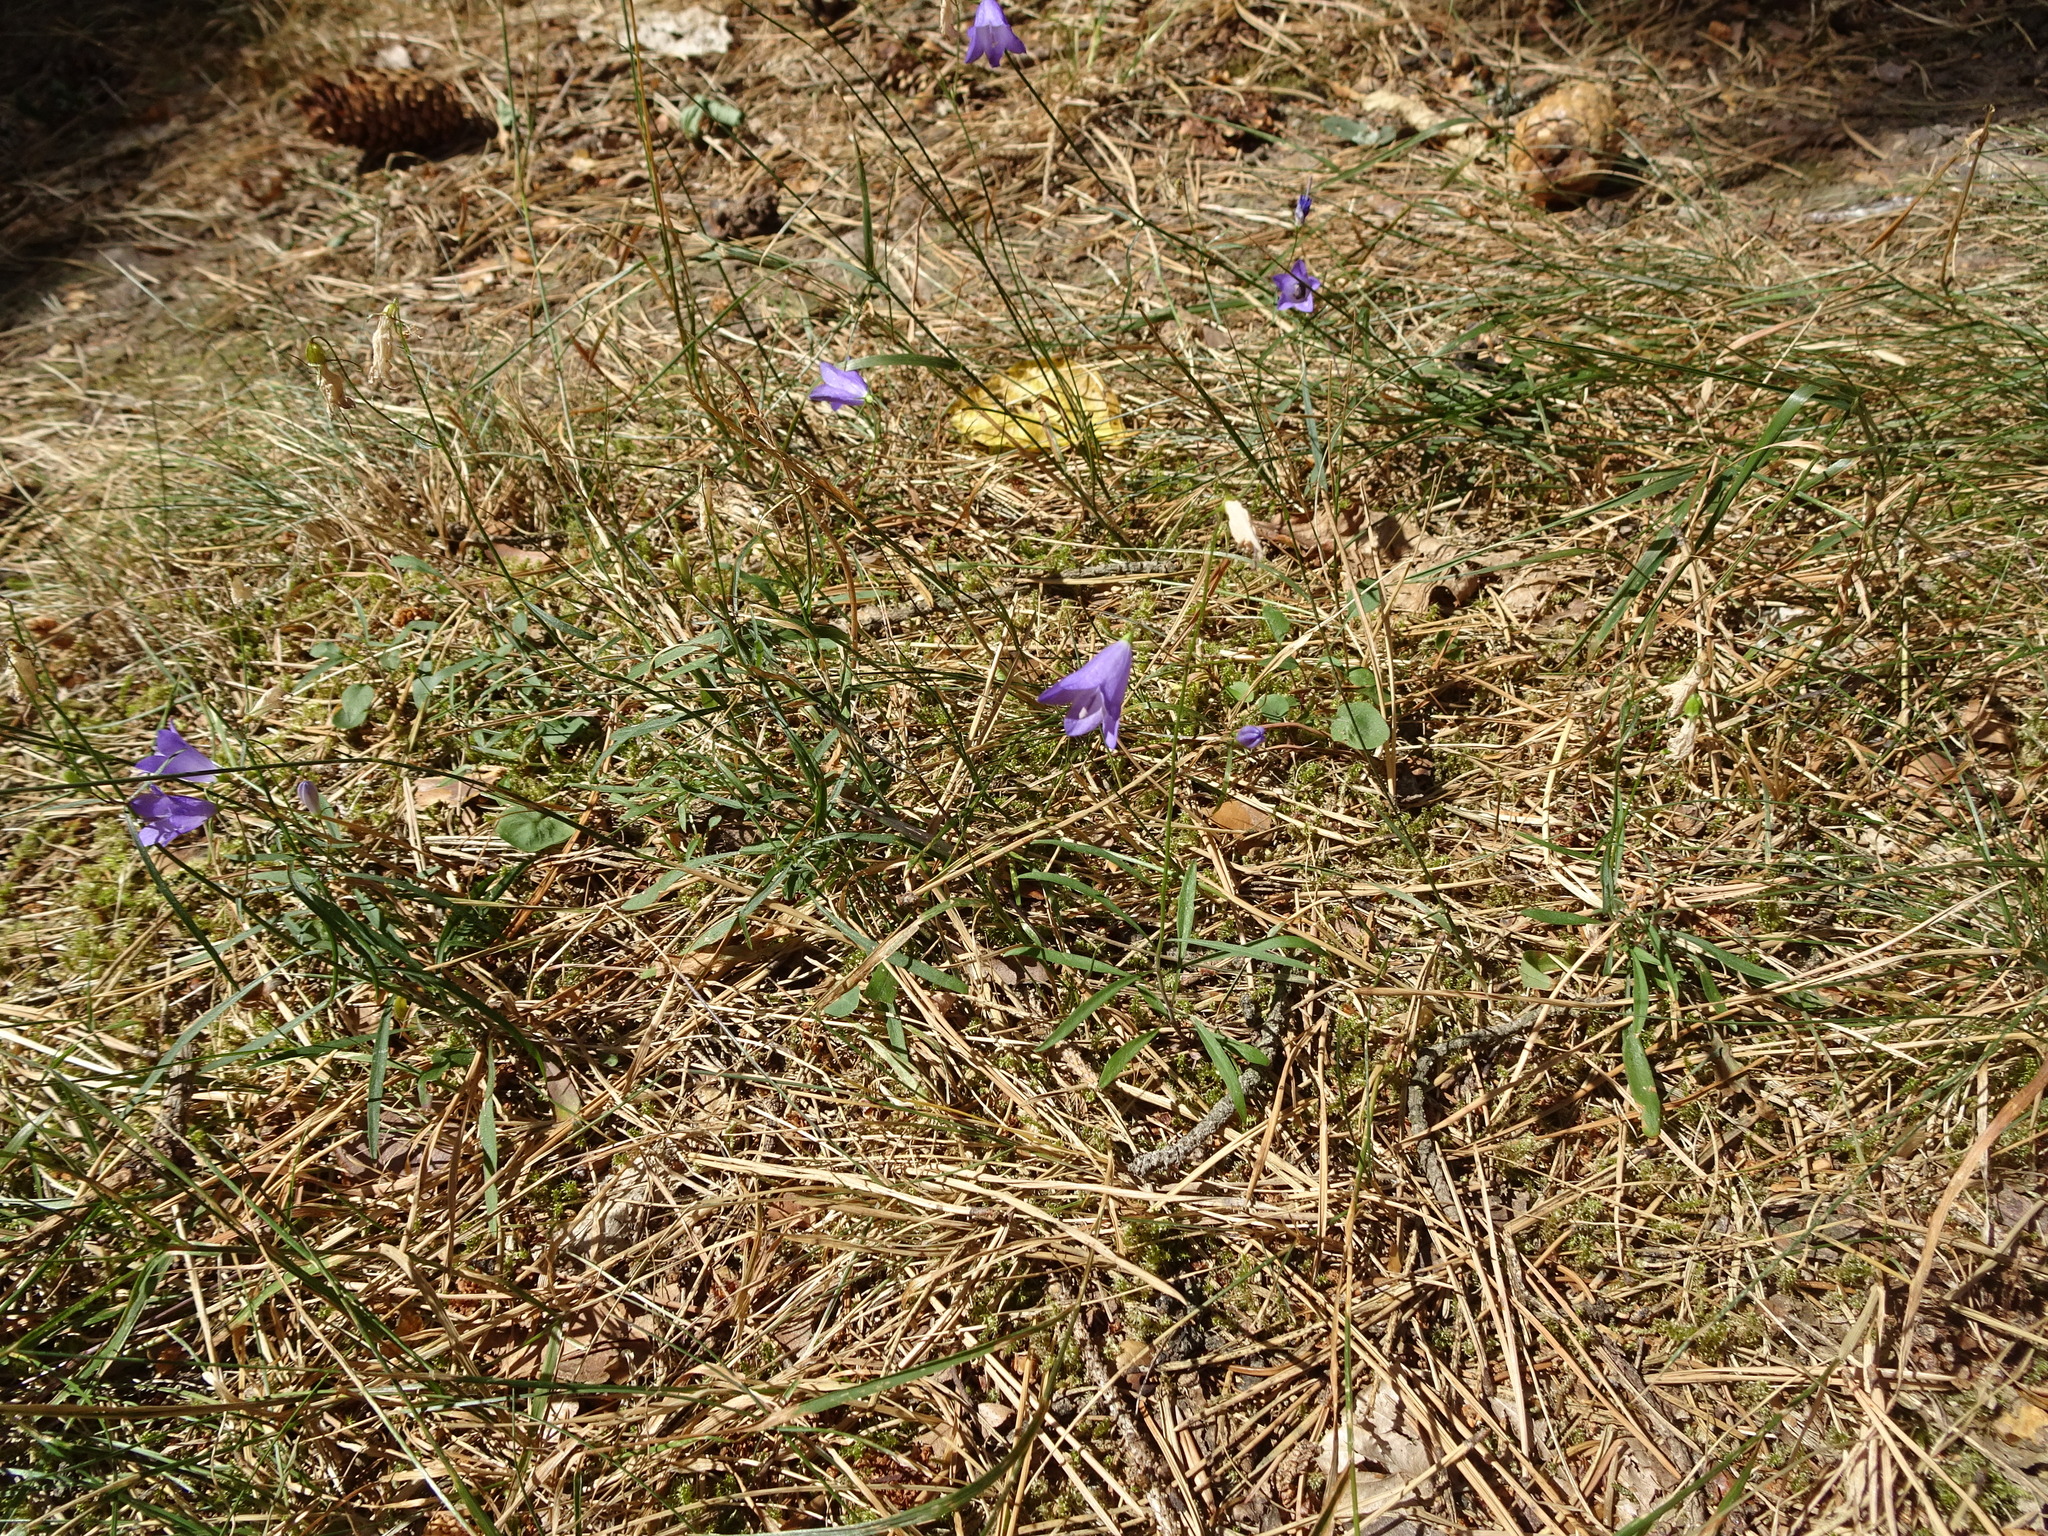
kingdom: Plantae
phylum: Tracheophyta
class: Magnoliopsida
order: Asterales
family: Campanulaceae
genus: Campanula
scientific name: Campanula rotundifolia
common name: Harebell
